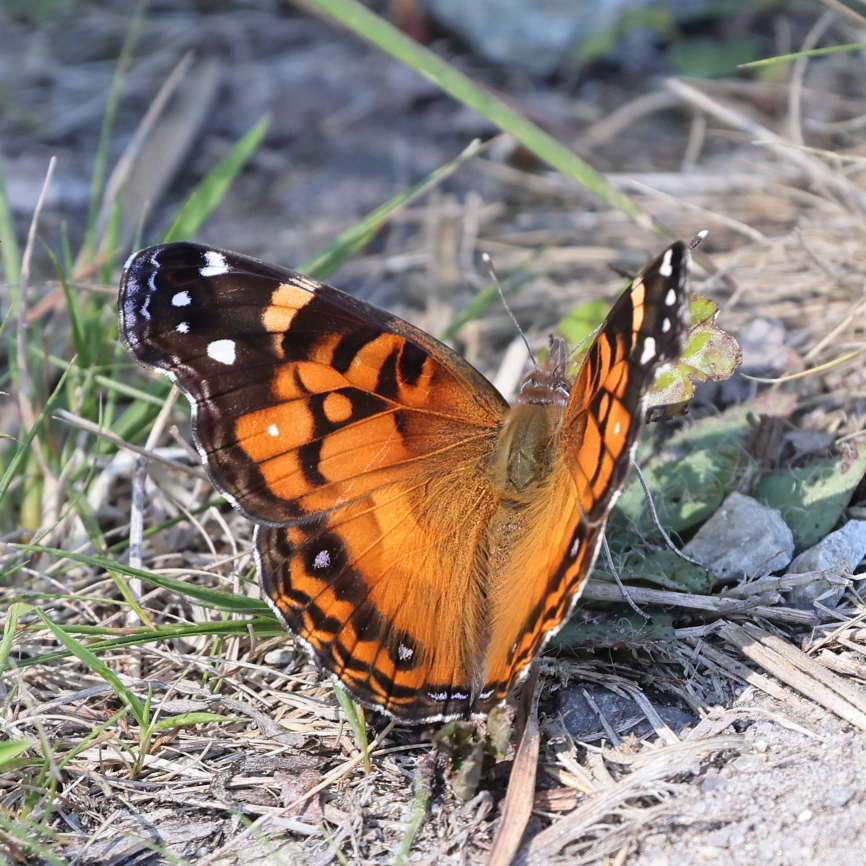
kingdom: Animalia
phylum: Arthropoda
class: Insecta
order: Lepidoptera
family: Nymphalidae
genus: Vanessa
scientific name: Vanessa virginiensis
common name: American lady
